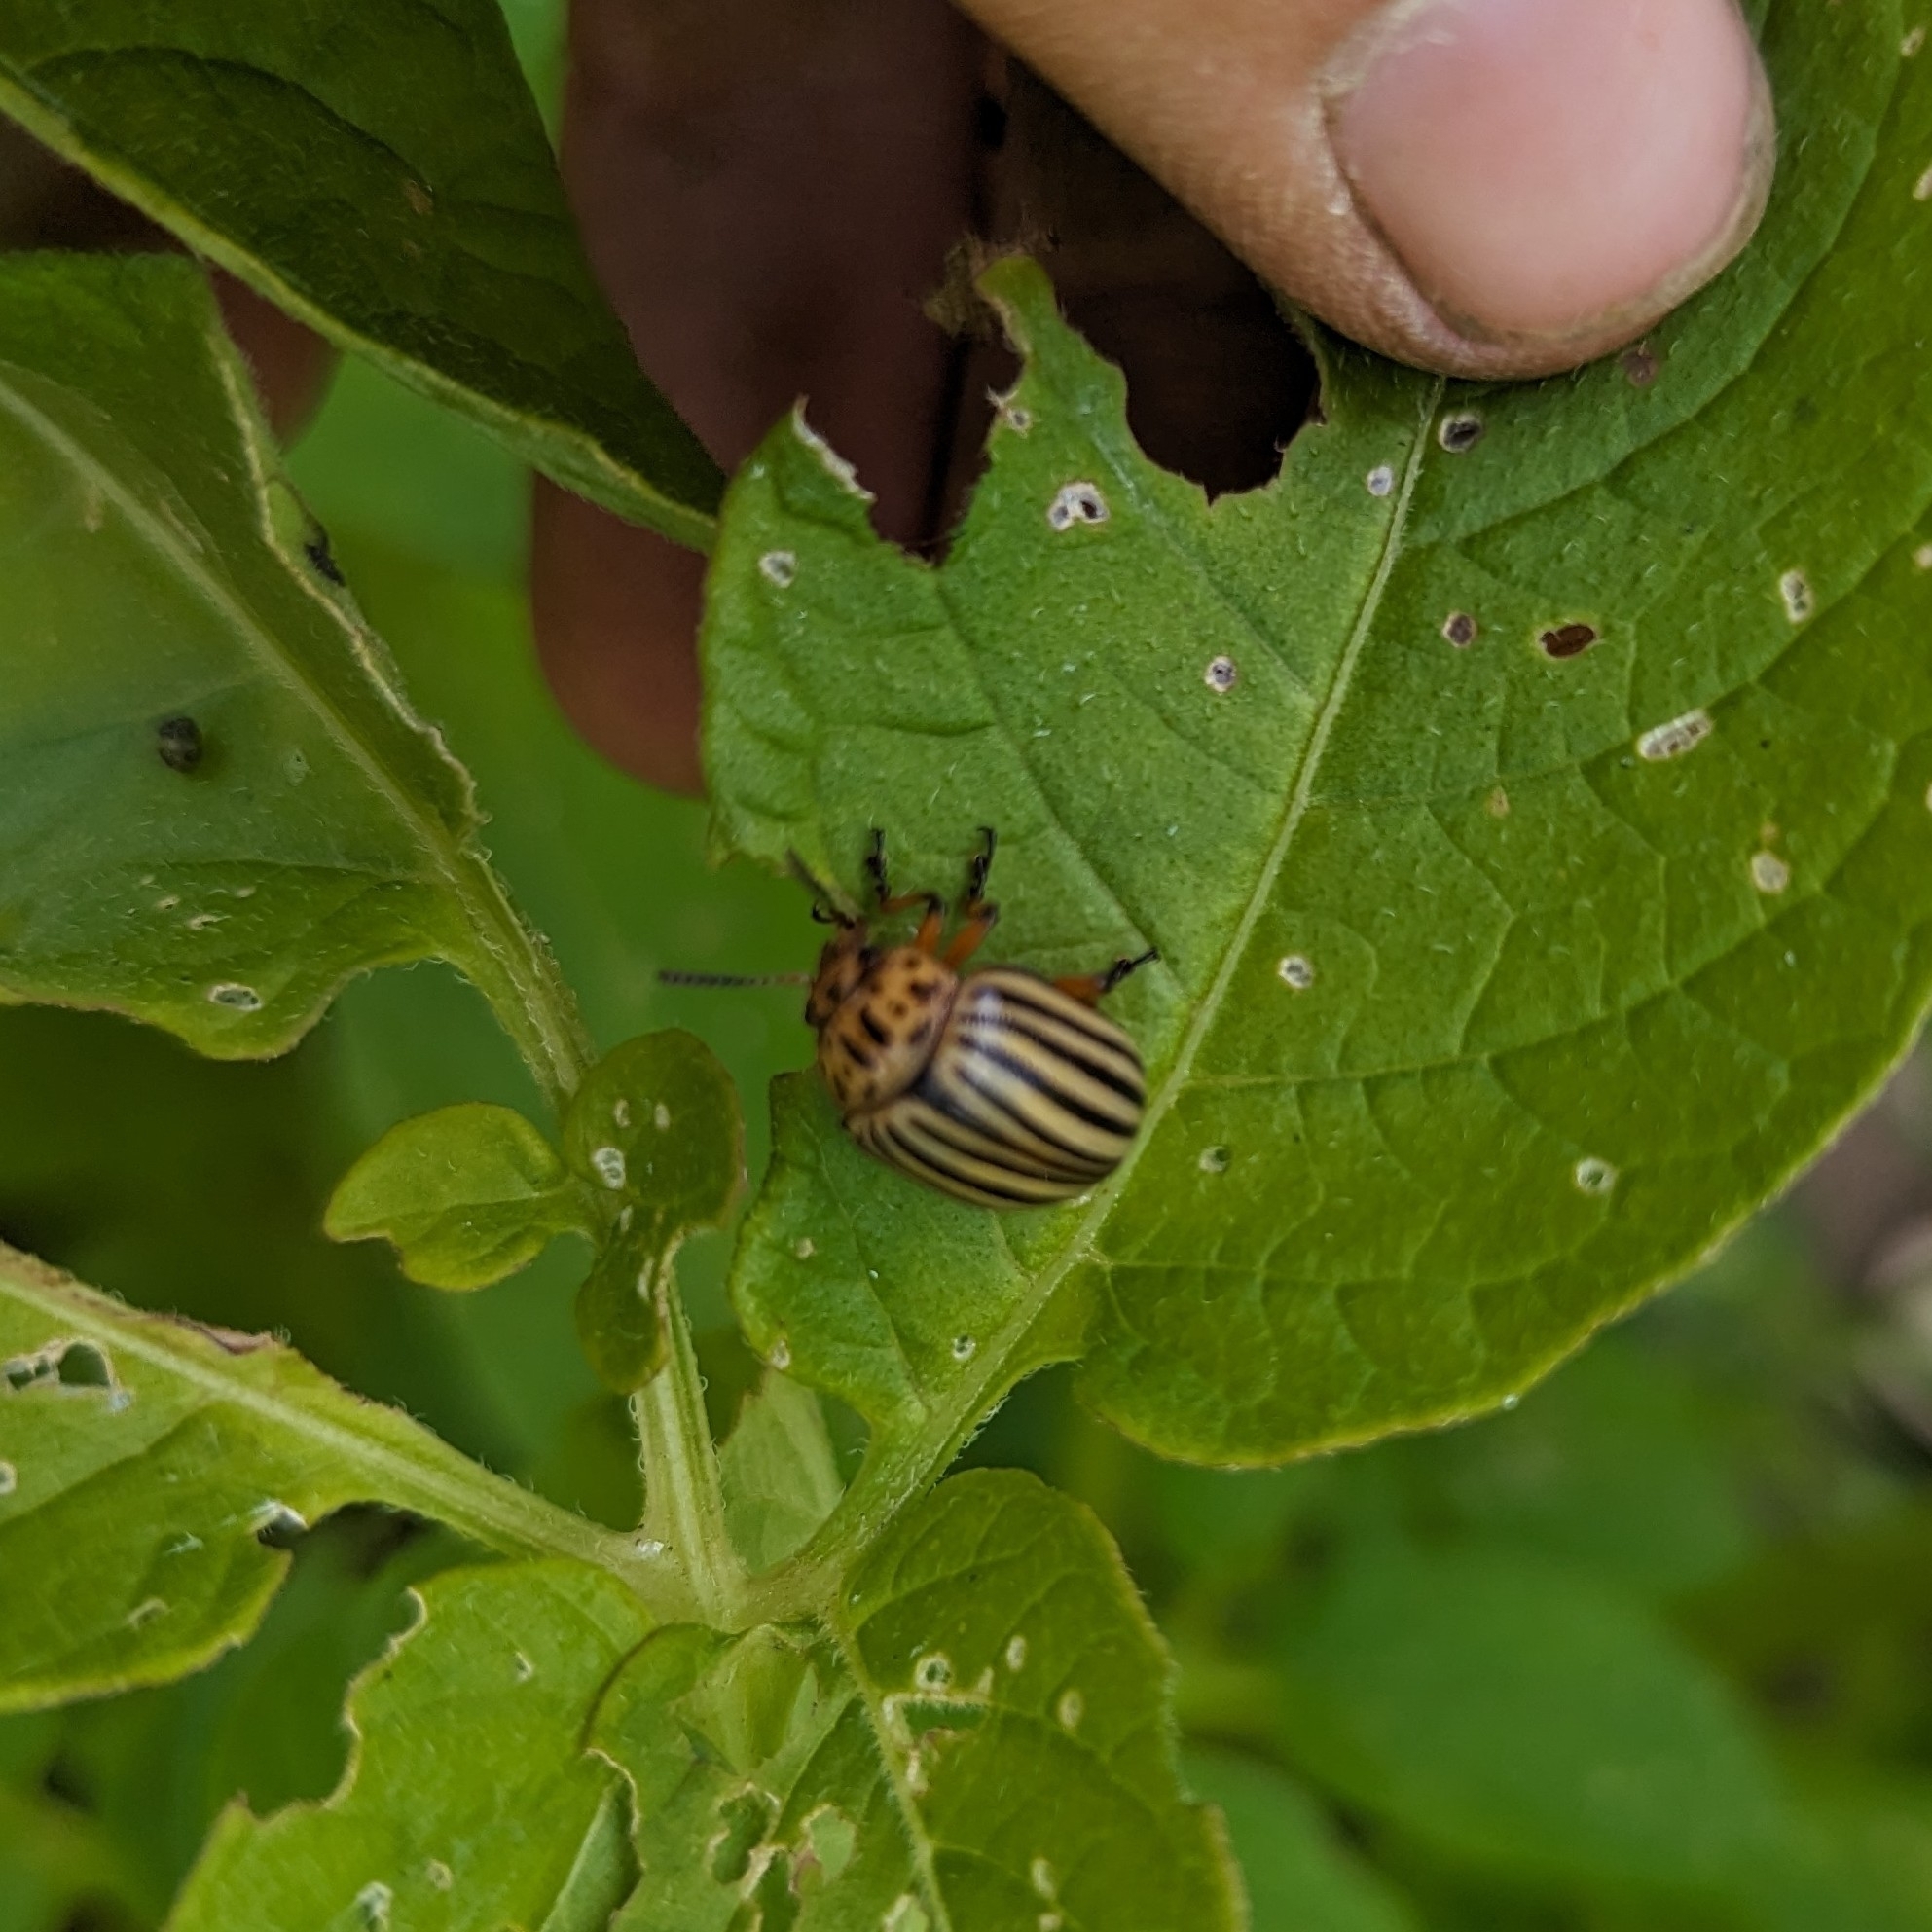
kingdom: Animalia
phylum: Arthropoda
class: Insecta
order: Coleoptera
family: Chrysomelidae
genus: Leptinotarsa
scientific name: Leptinotarsa decemlineata
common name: Colorado potato beetle
